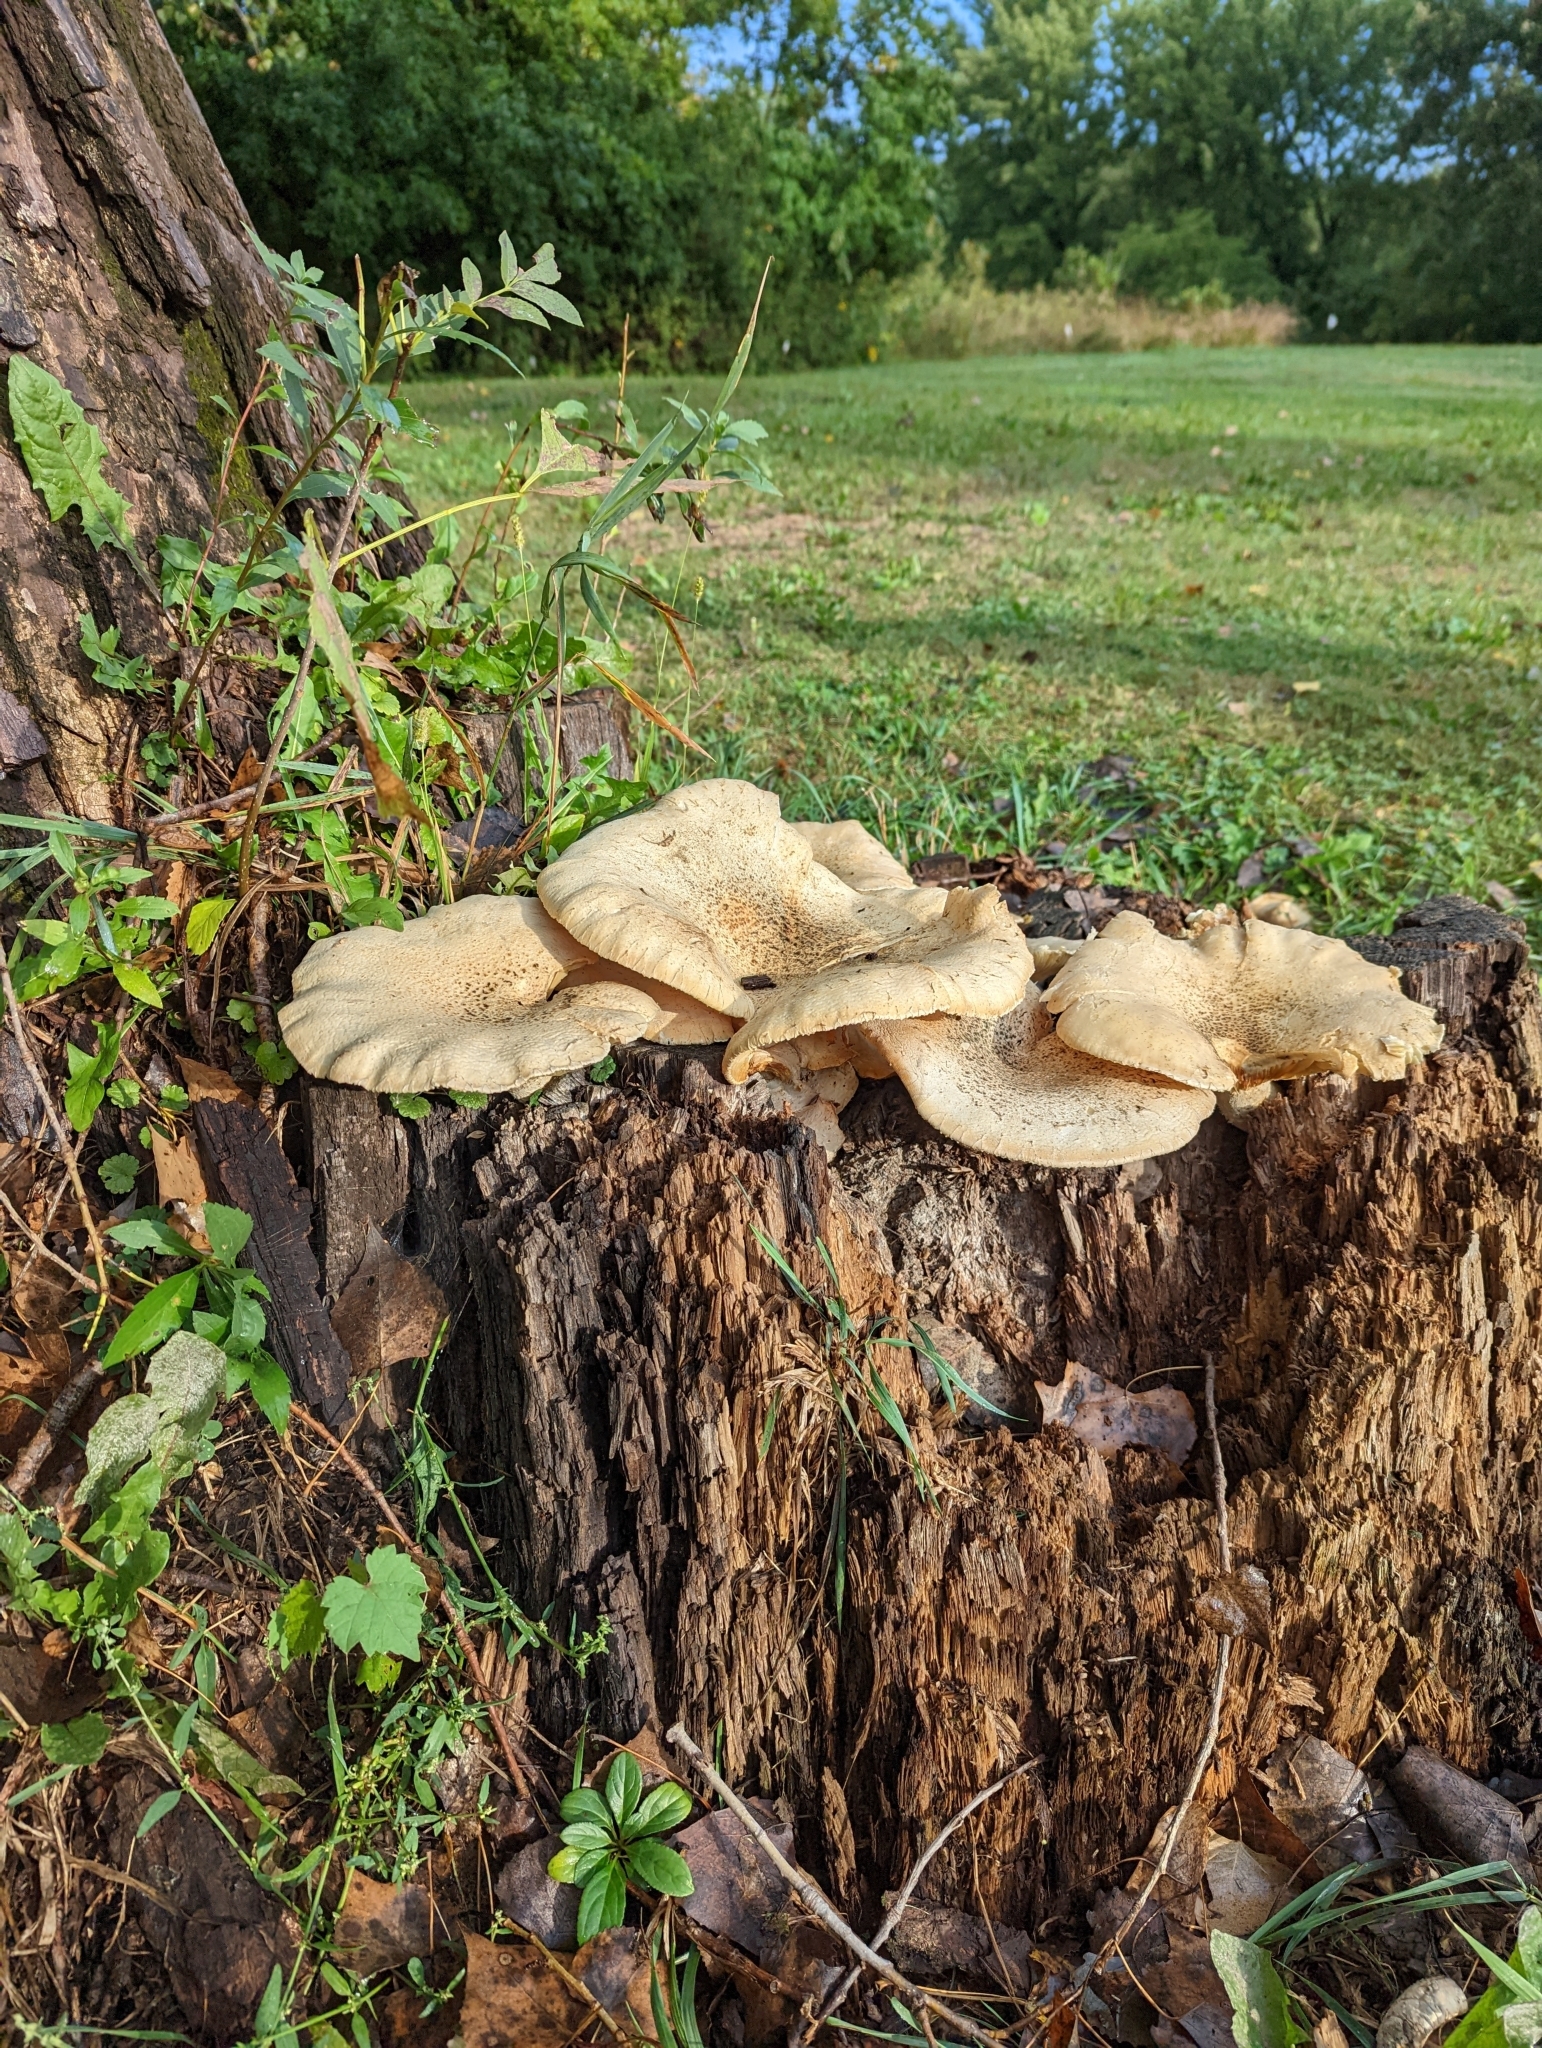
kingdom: Fungi
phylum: Basidiomycota
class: Agaricomycetes
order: Polyporales
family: Polyporaceae
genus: Cerioporus
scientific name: Cerioporus squamosus
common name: Dryad's saddle
